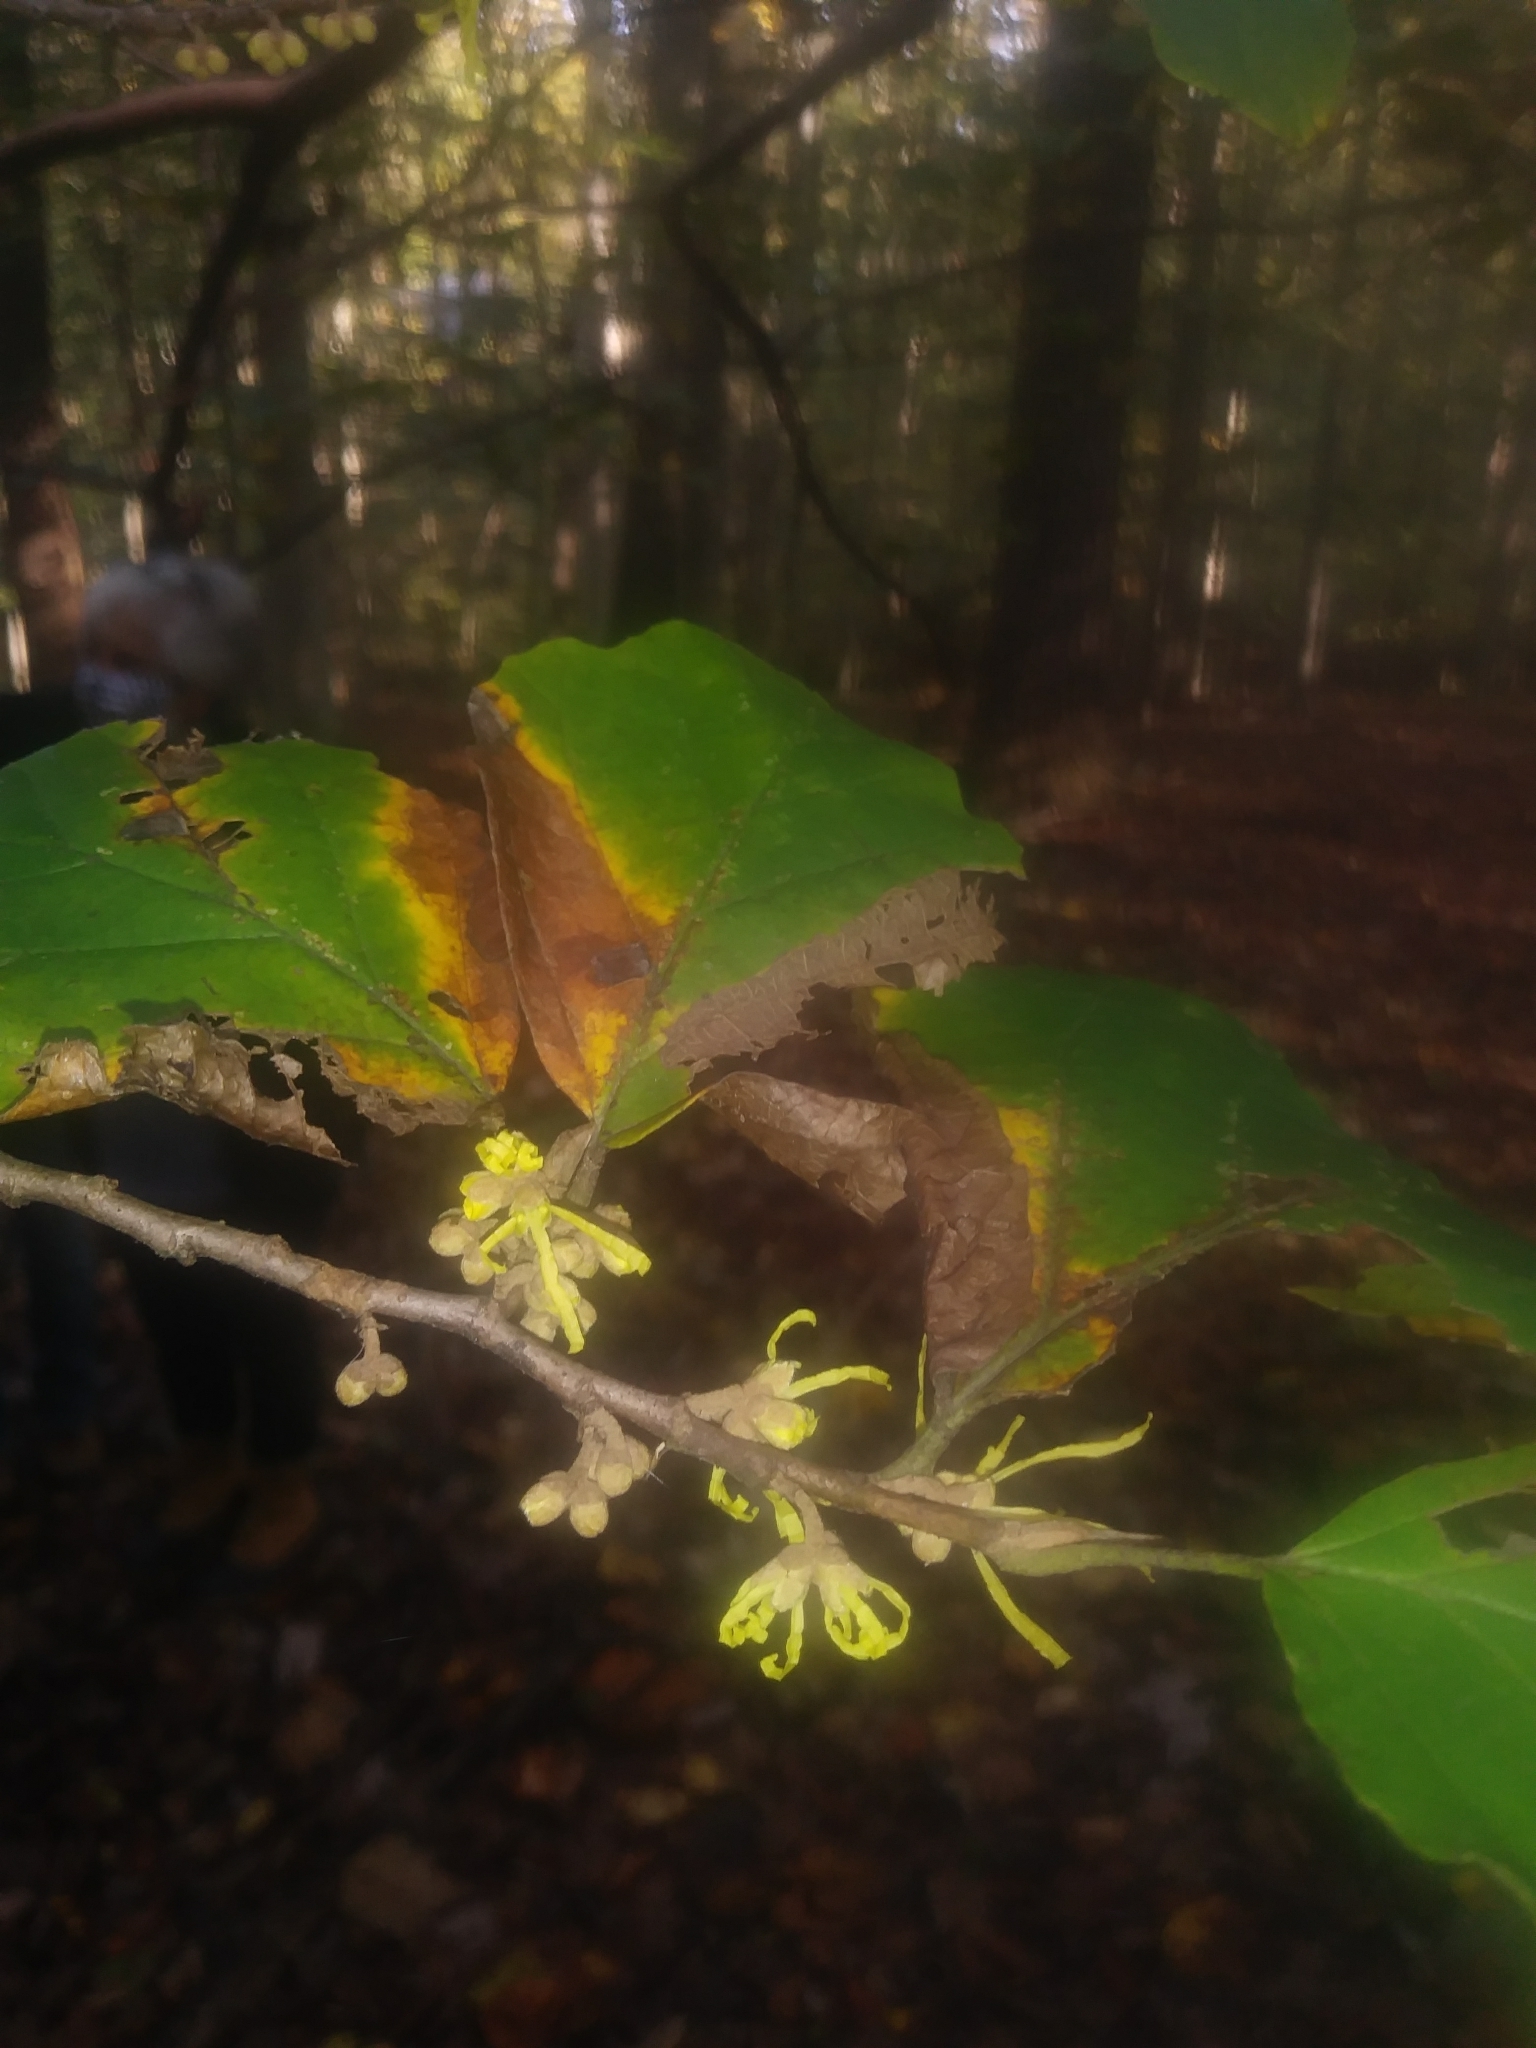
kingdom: Plantae
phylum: Tracheophyta
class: Magnoliopsida
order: Saxifragales
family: Hamamelidaceae
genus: Hamamelis
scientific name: Hamamelis virginiana
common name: Witch-hazel
